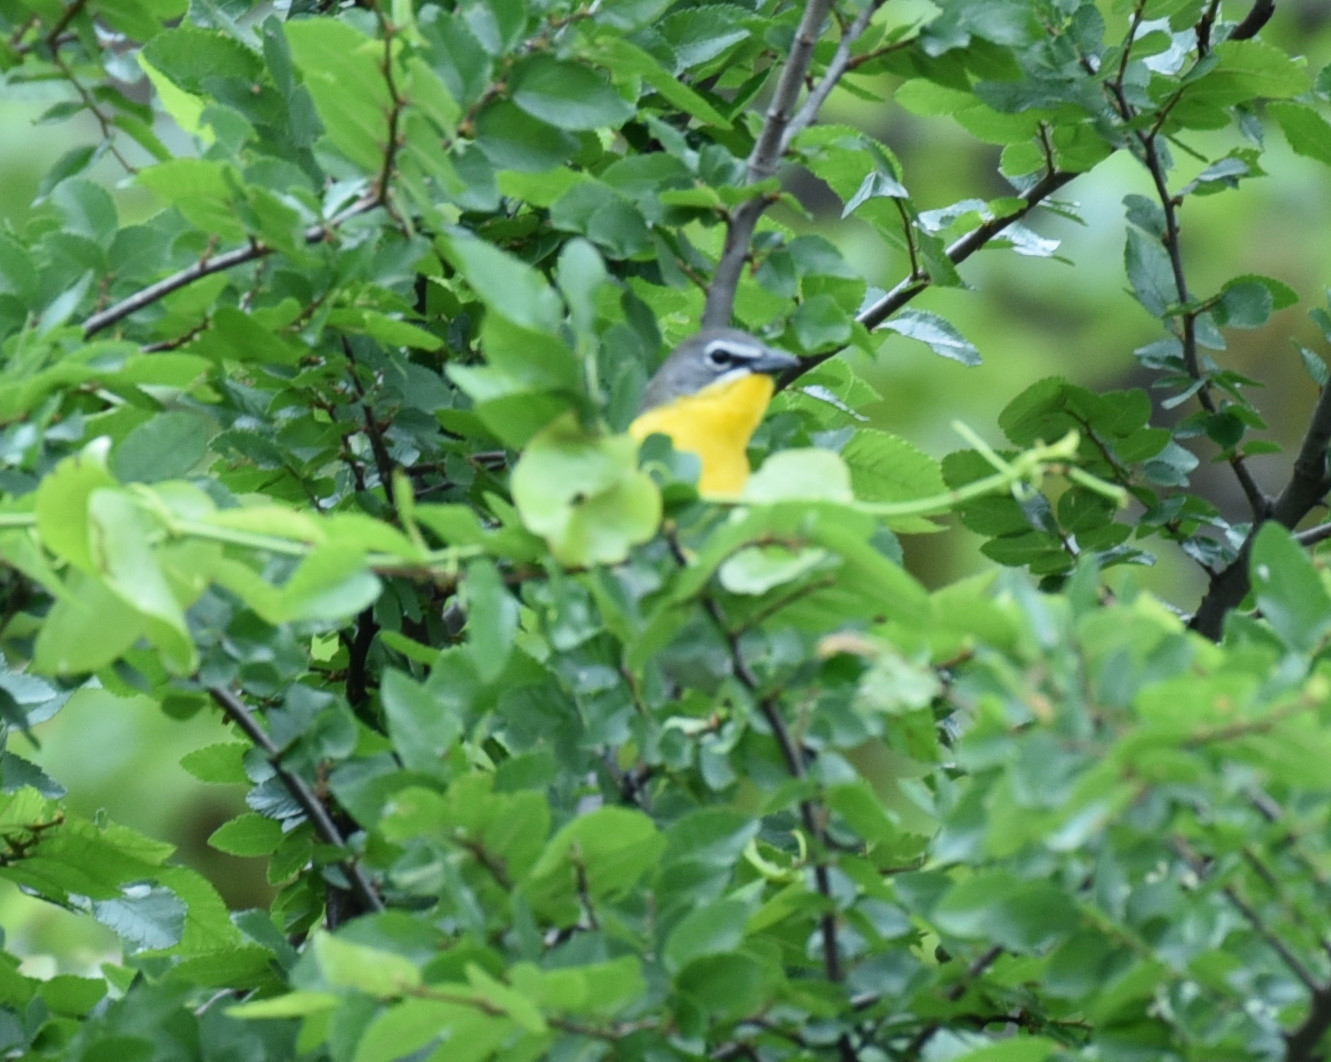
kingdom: Animalia
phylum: Chordata
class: Aves
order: Passeriformes
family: Parulidae
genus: Icteria
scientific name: Icteria virens
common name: Yellow-breasted chat
